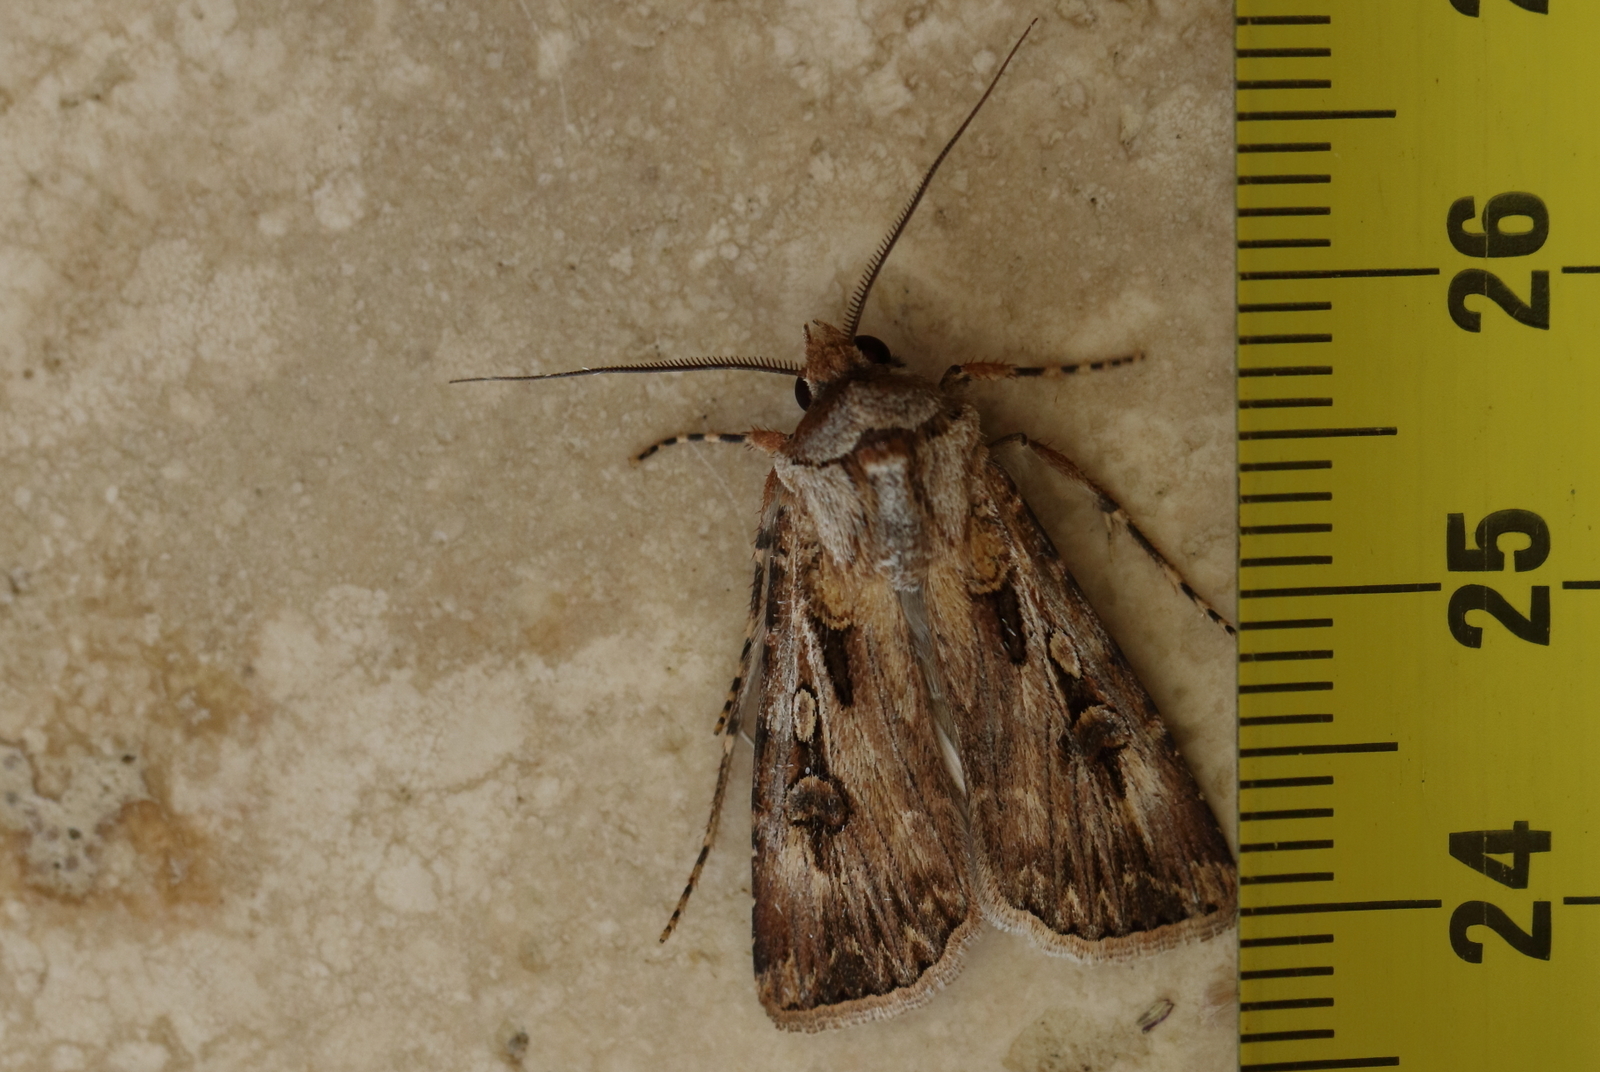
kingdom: Animalia
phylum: Arthropoda
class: Insecta
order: Lepidoptera
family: Noctuidae
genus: Agrotis
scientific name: Agrotis munda
